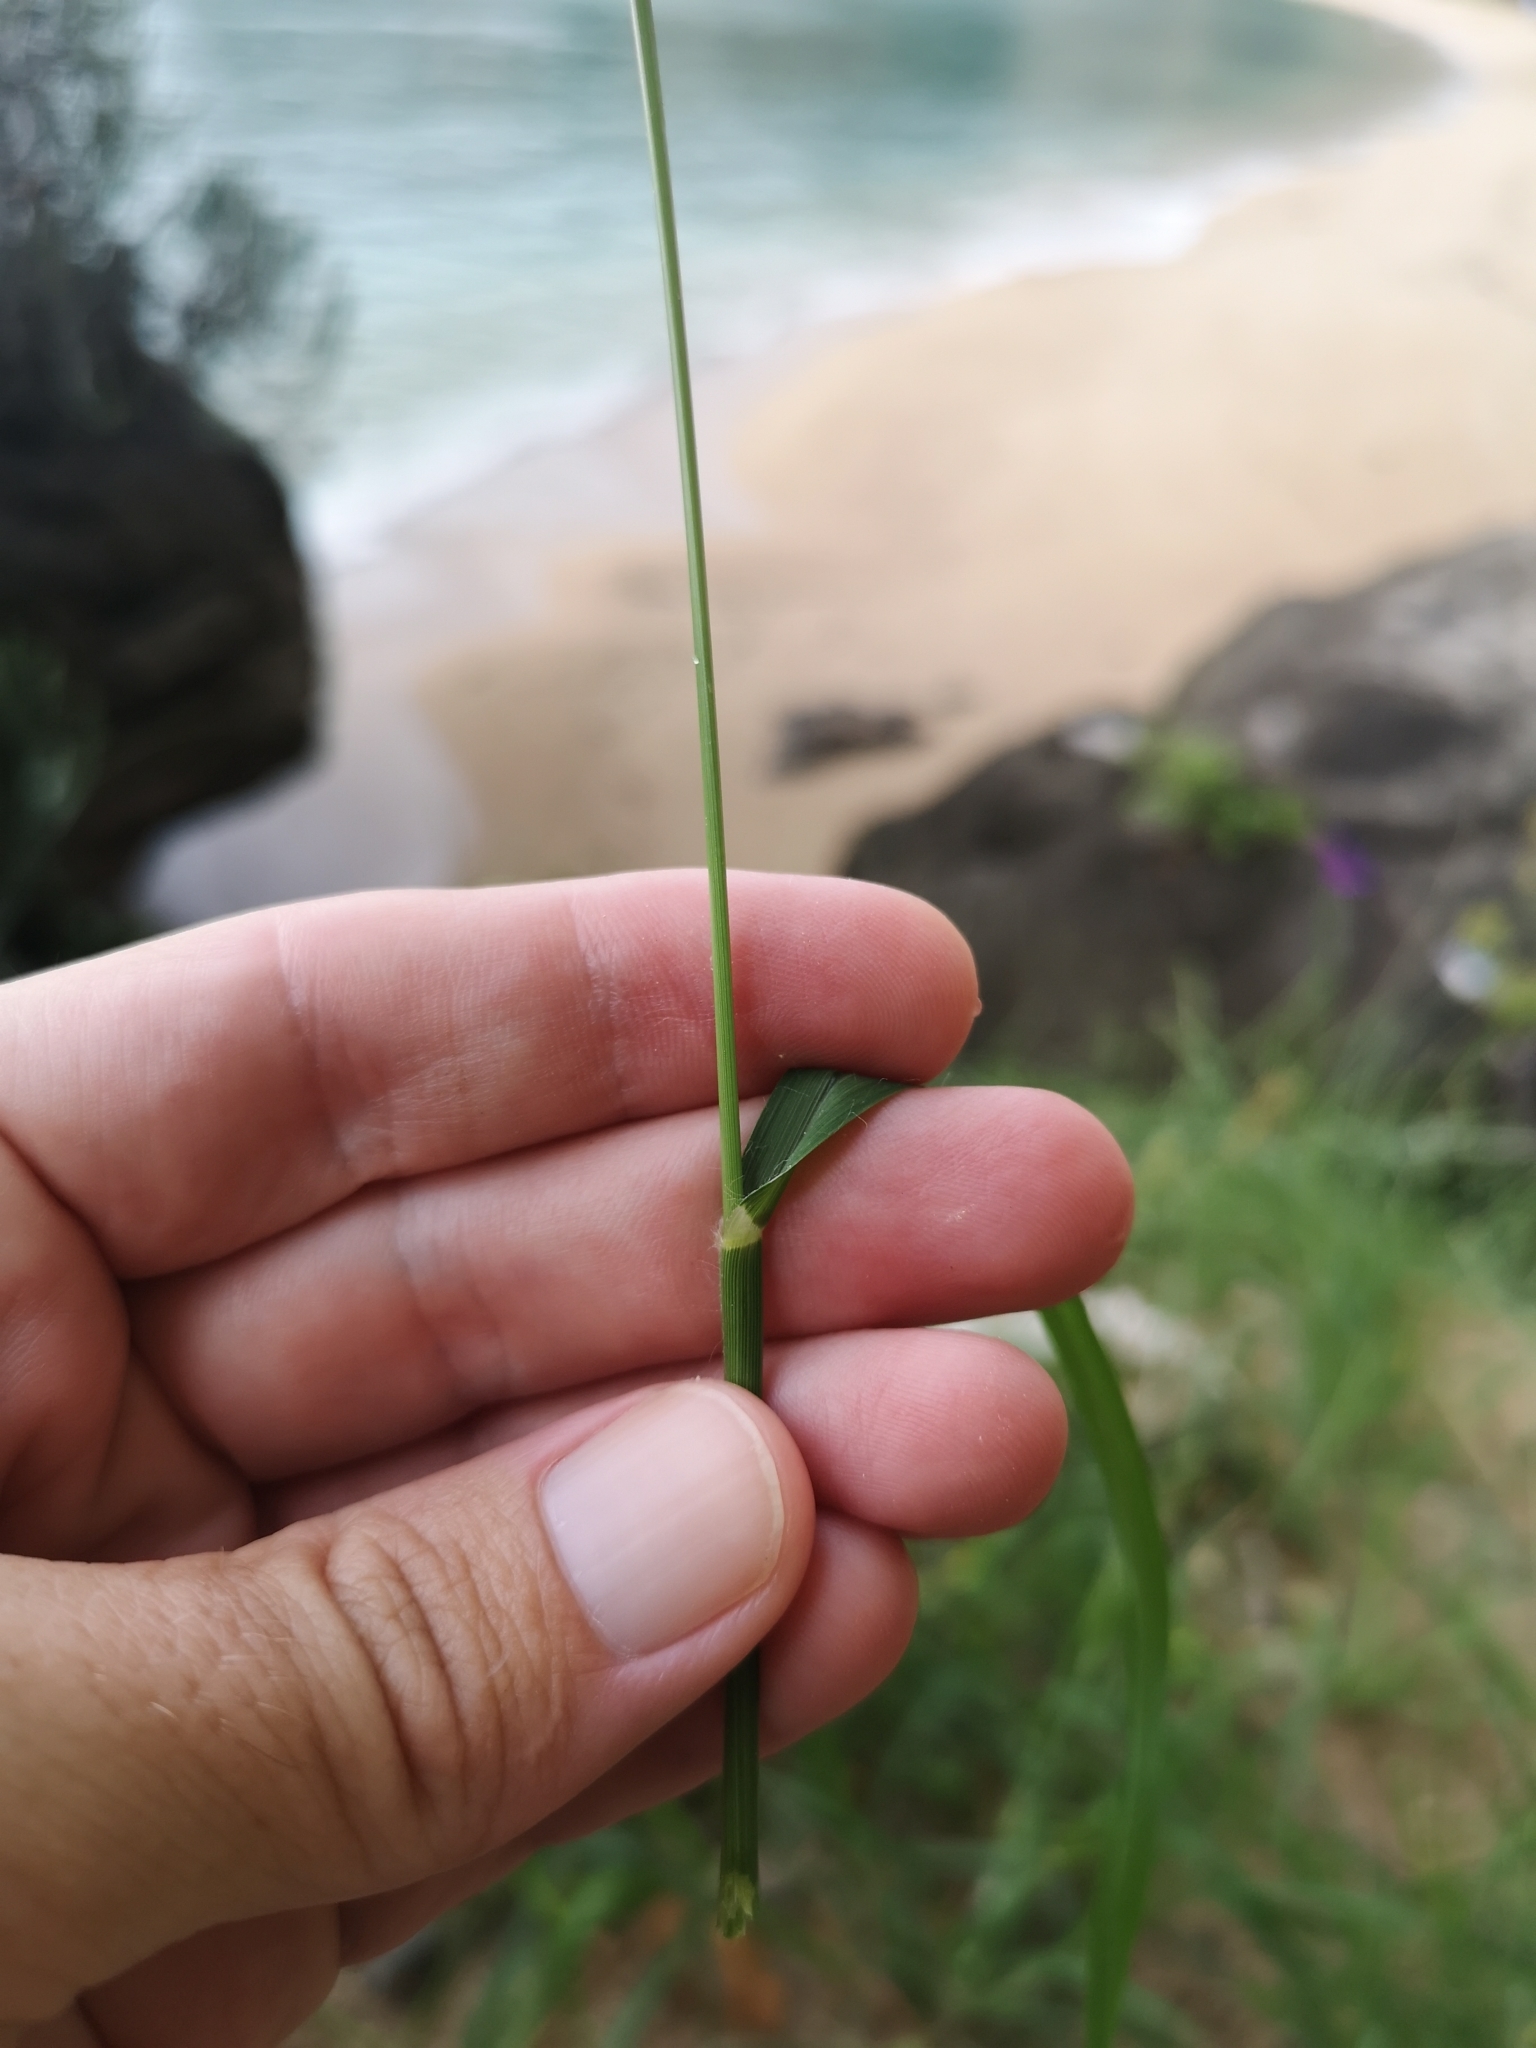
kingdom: Plantae
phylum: Tracheophyta
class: Liliopsida
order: Poales
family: Poaceae
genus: Eleusine
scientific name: Eleusine indica
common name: Yard-grass
